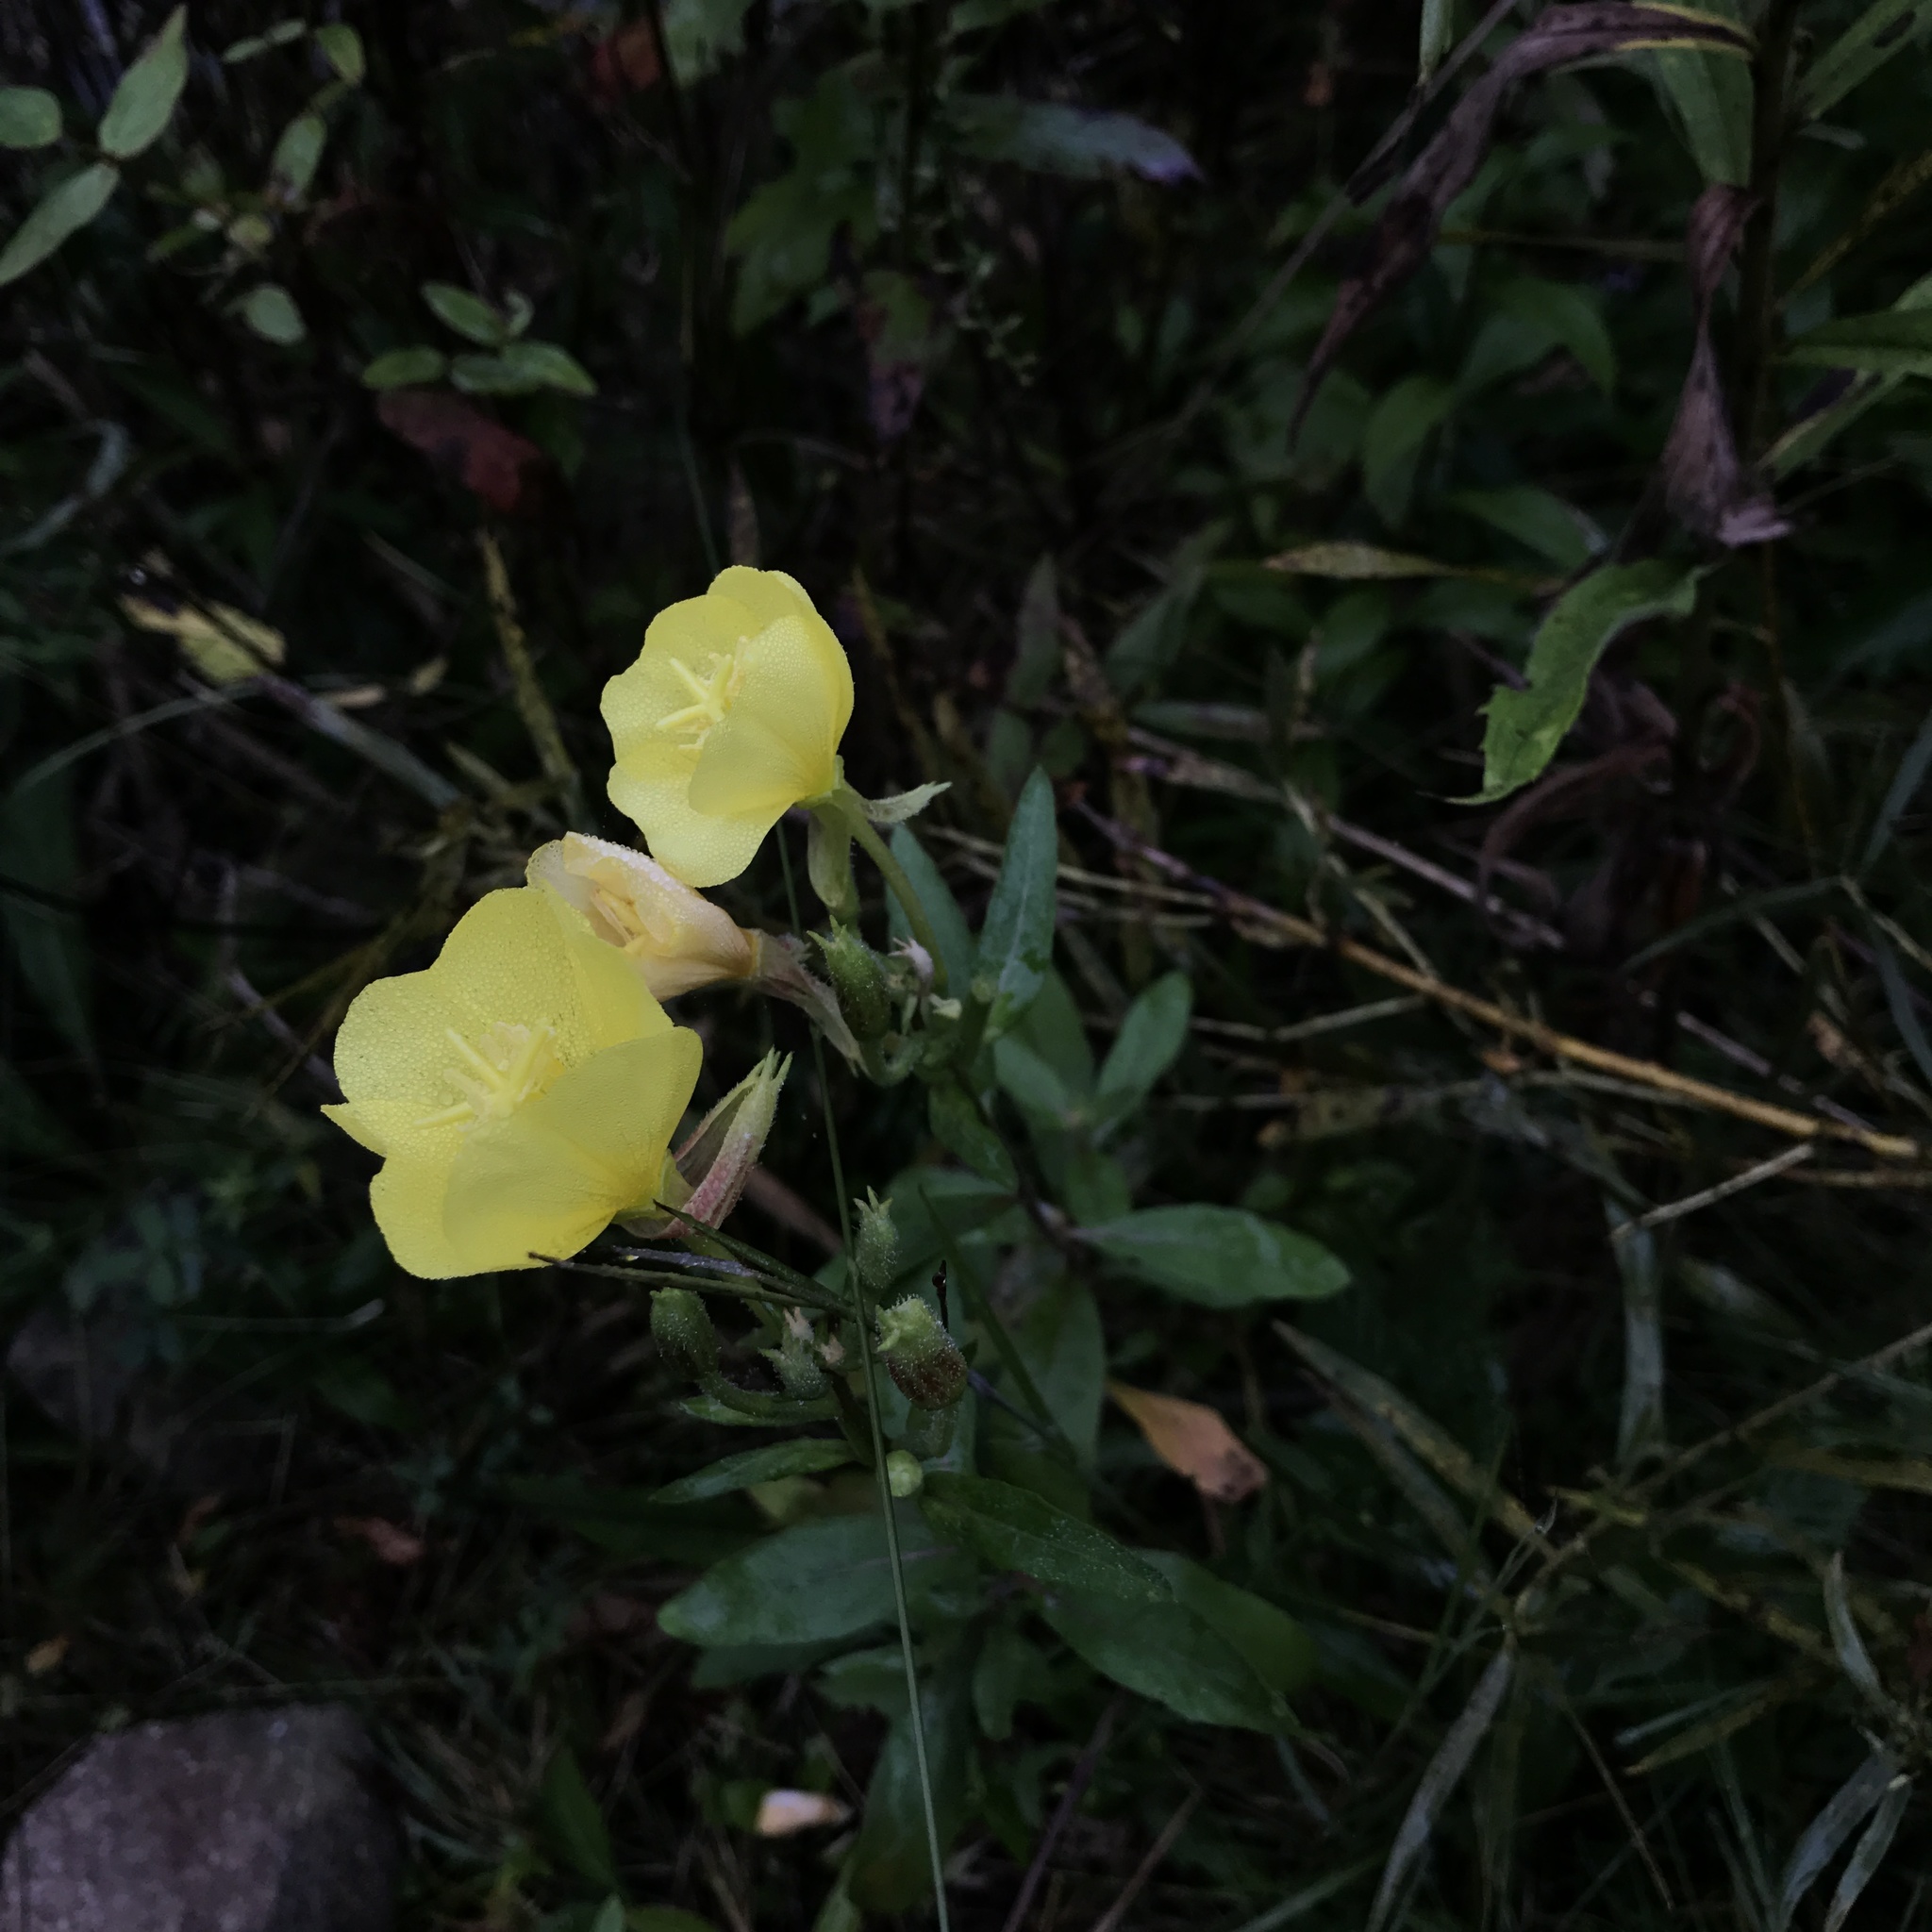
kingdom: Plantae
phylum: Tracheophyta
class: Magnoliopsida
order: Myrtales
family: Onagraceae
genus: Oenothera
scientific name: Oenothera biennis
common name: Common evening-primrose
